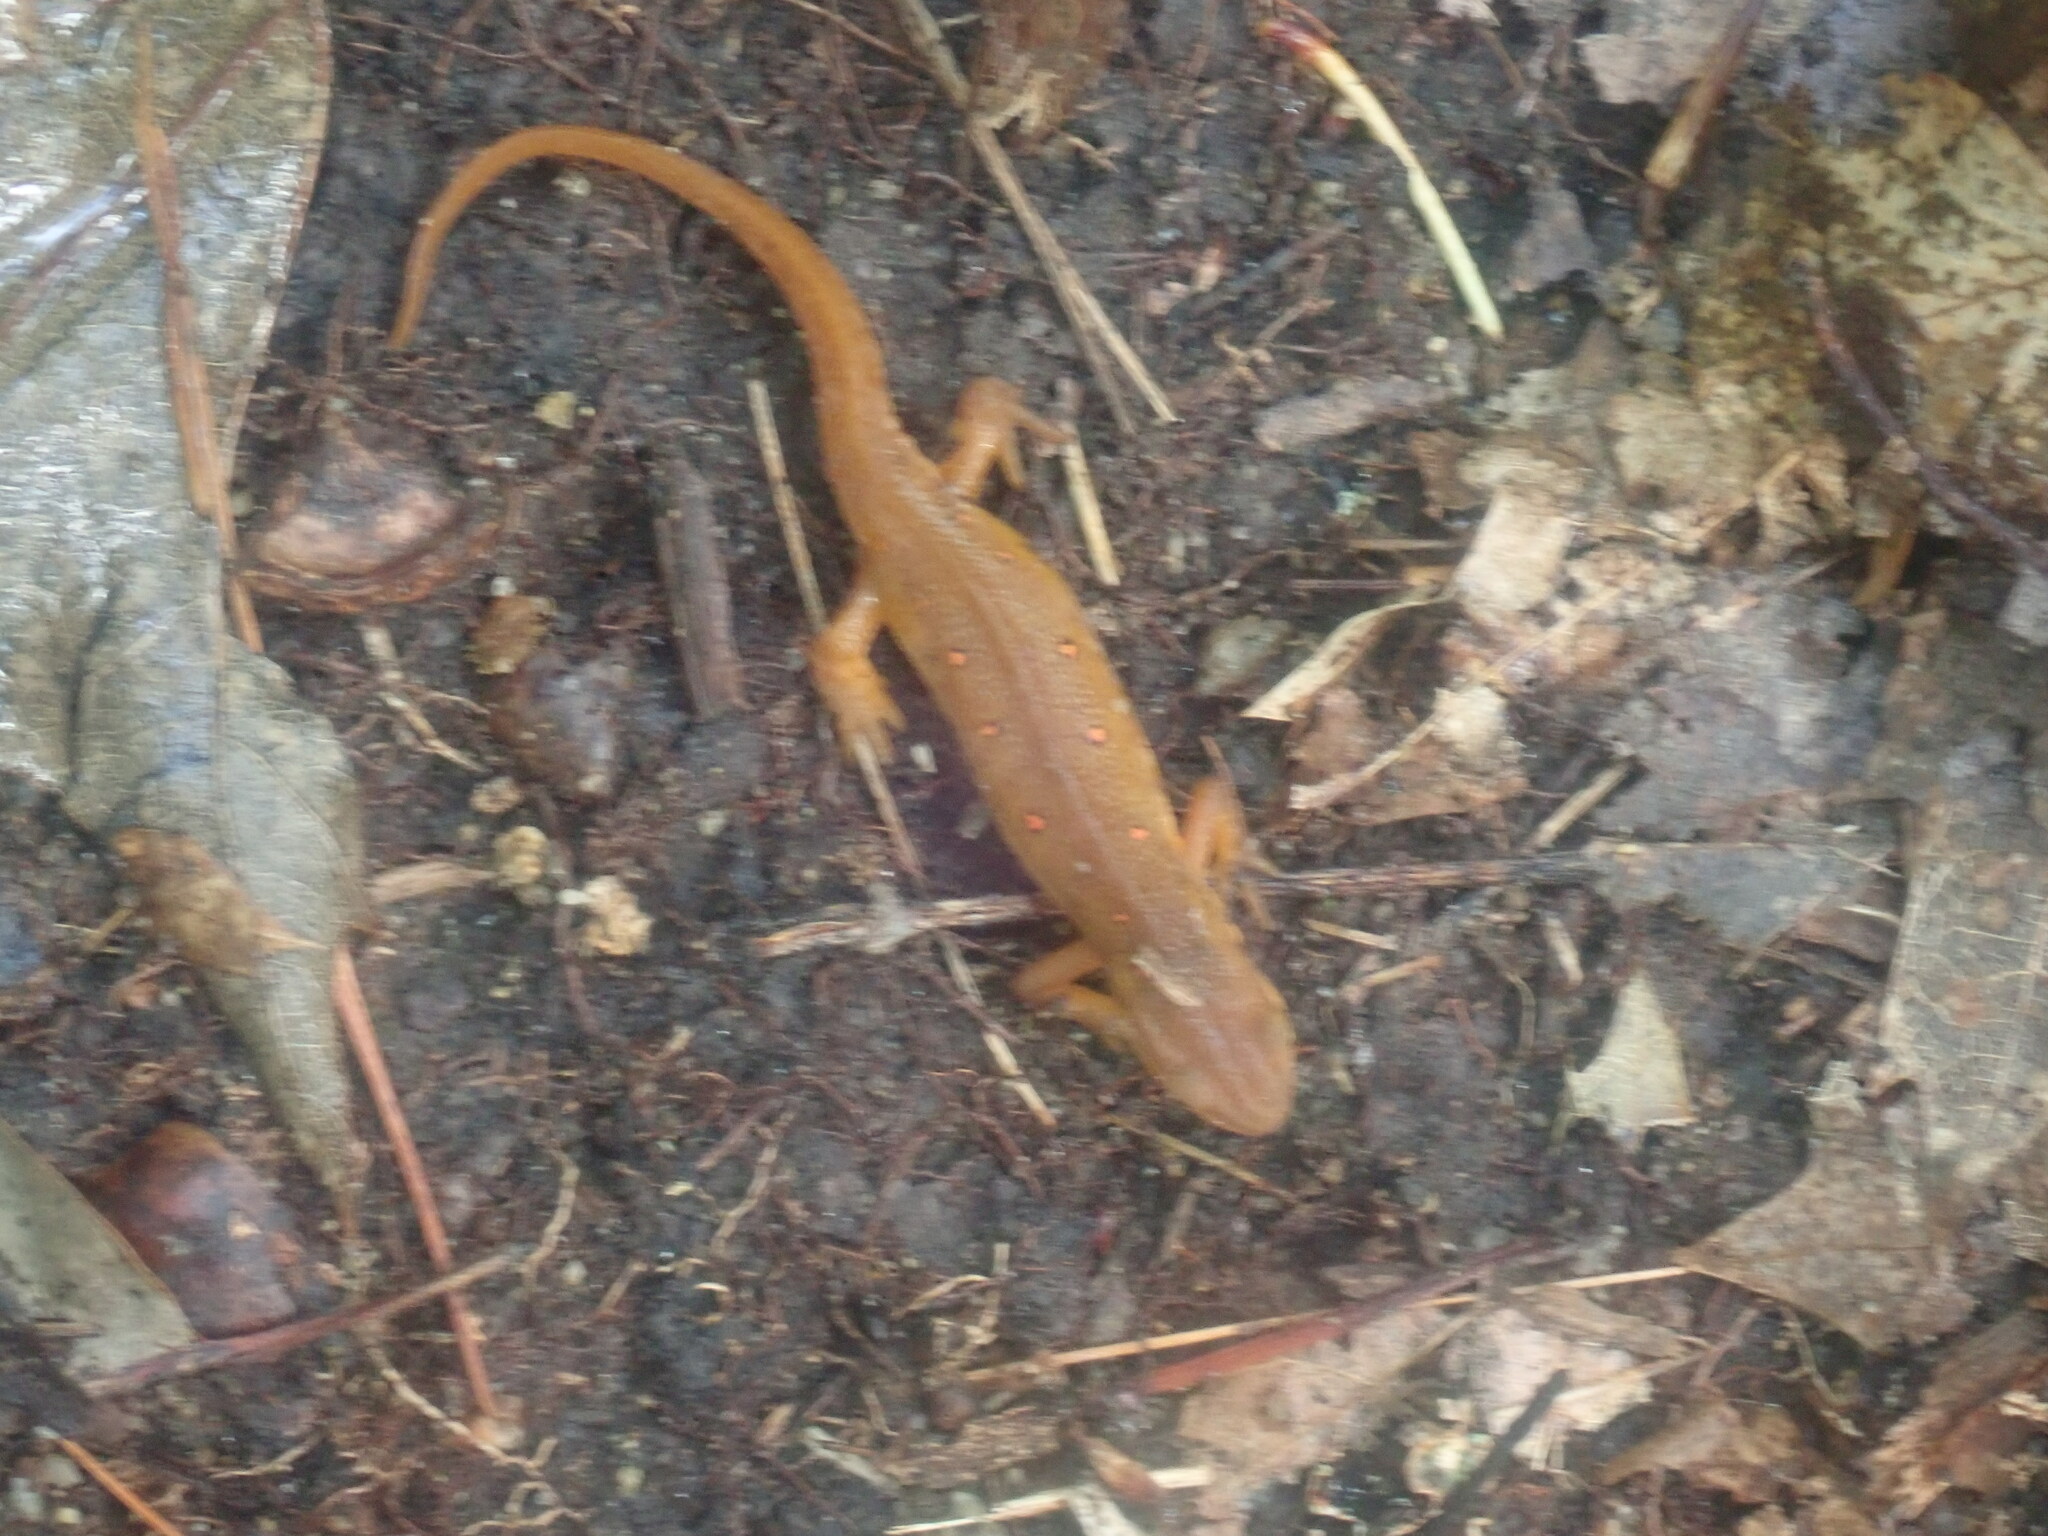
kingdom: Animalia
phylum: Chordata
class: Amphibia
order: Caudata
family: Salamandridae
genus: Notophthalmus
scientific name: Notophthalmus viridescens
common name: Eastern newt
